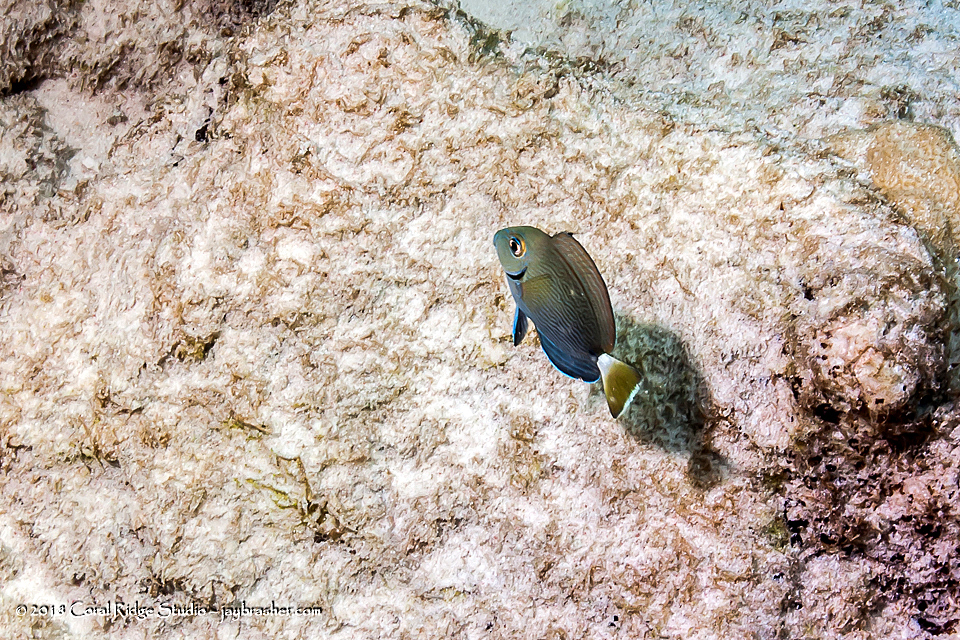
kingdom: Animalia
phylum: Chordata
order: Perciformes
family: Acanthuridae
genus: Acanthurus
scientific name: Acanthurus bahianus
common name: Ocean surgeon
